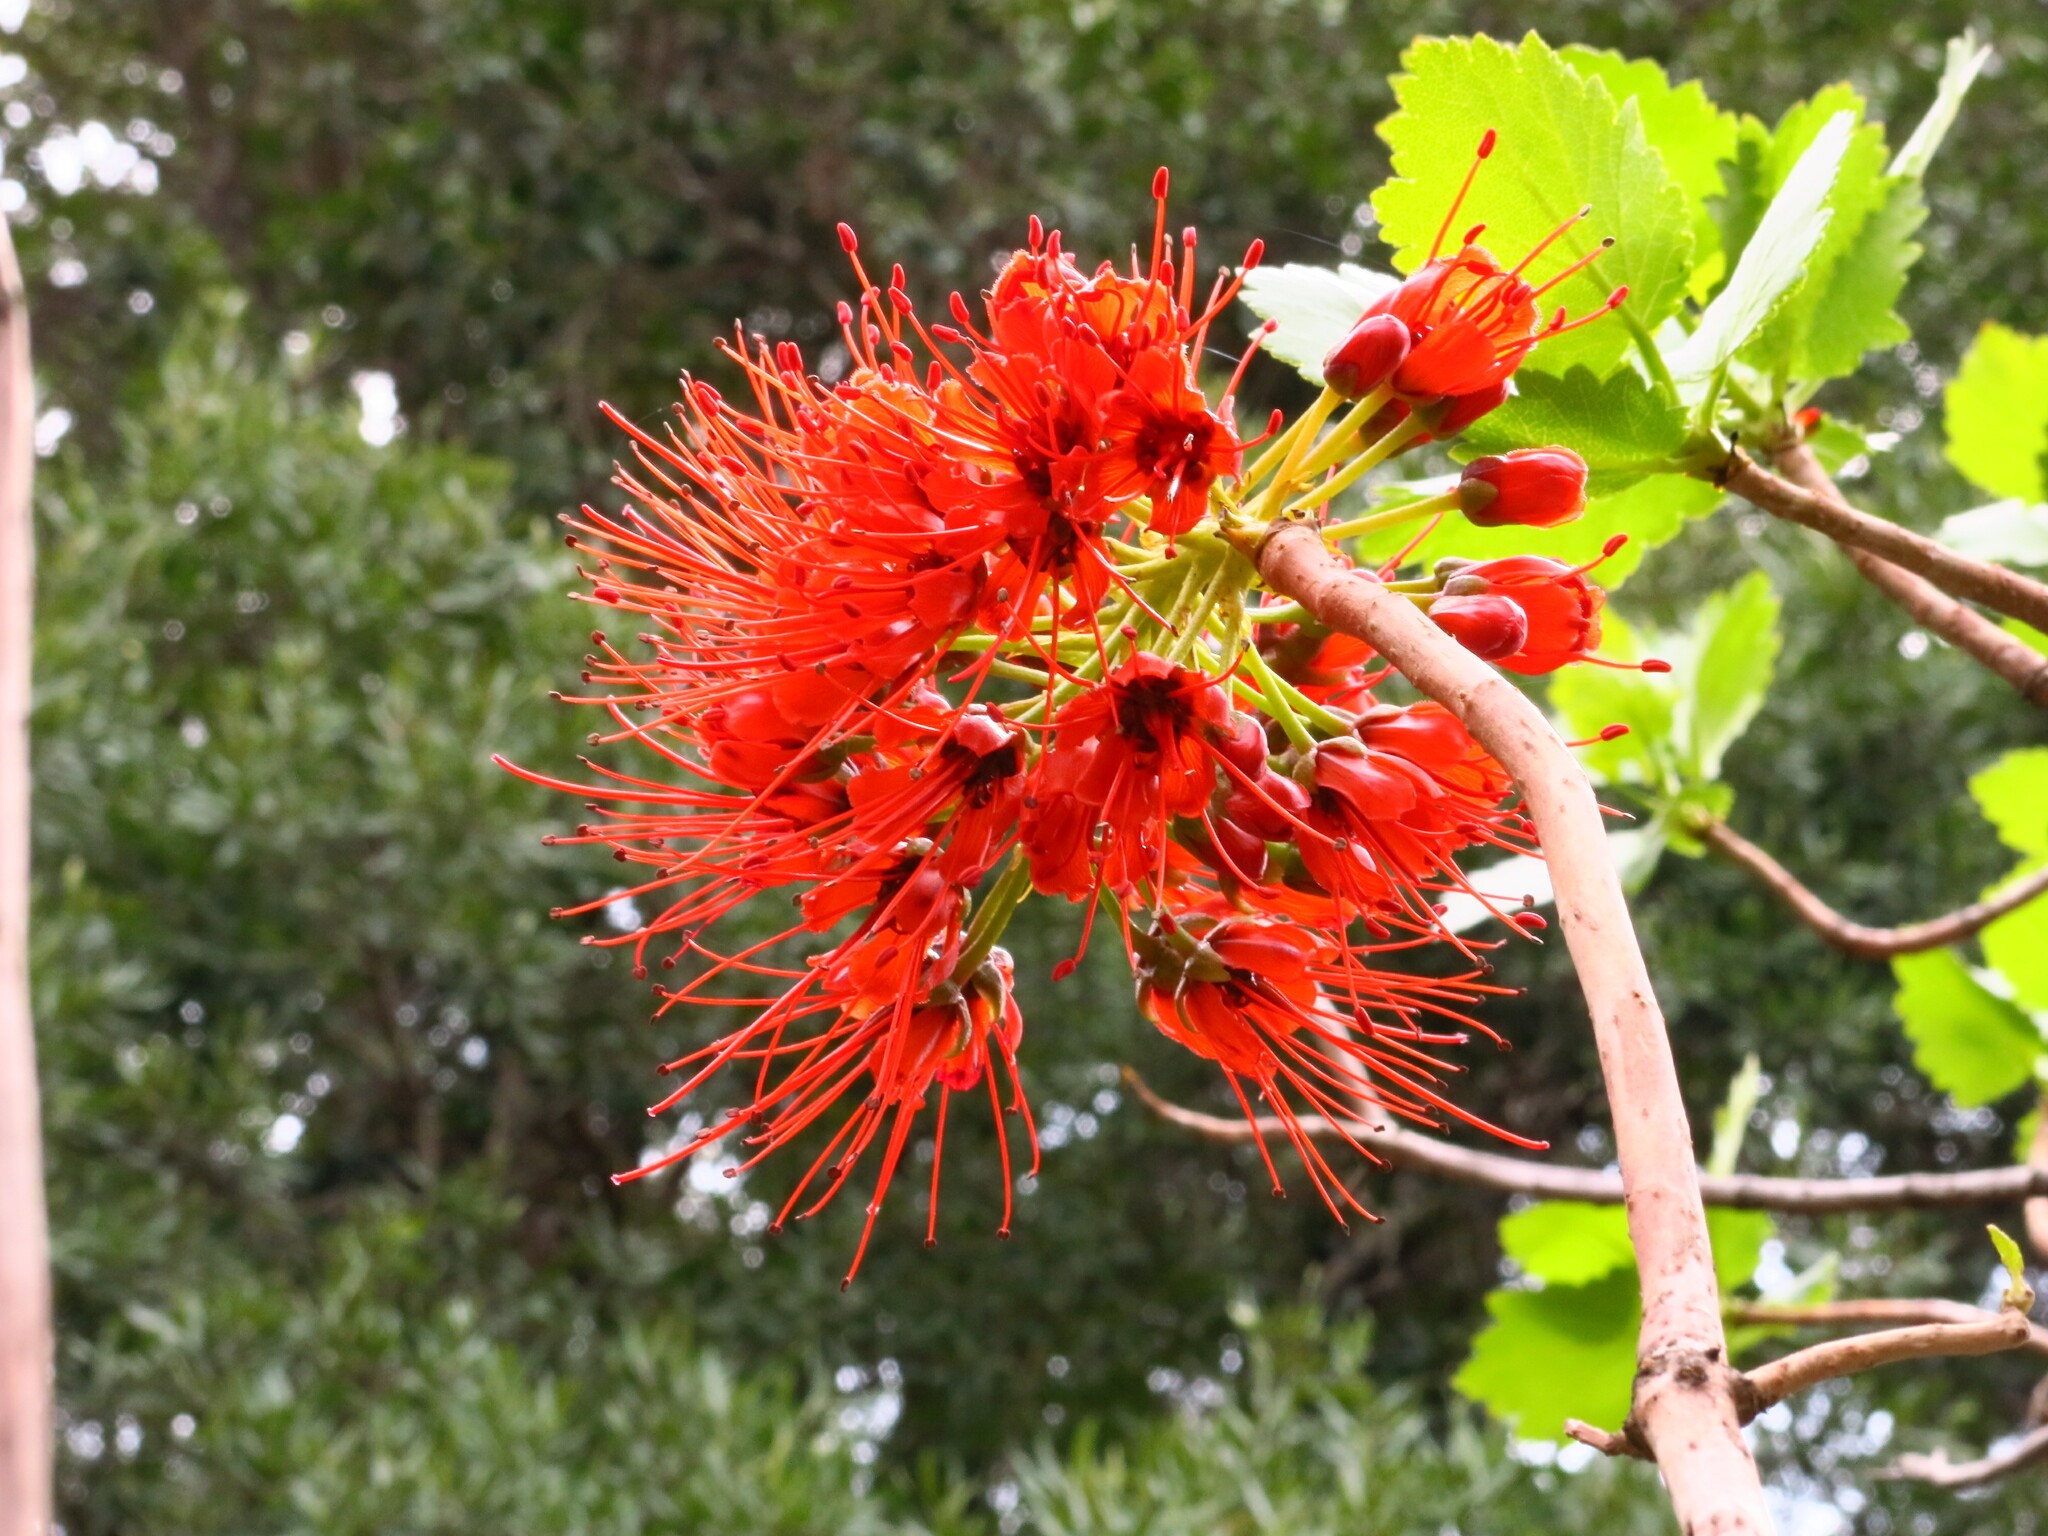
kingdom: Plantae
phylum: Tracheophyta
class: Magnoliopsida
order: Geraniales
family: Francoaceae
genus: Greyia
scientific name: Greyia sutherlandii
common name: Glossy bottlebrush
